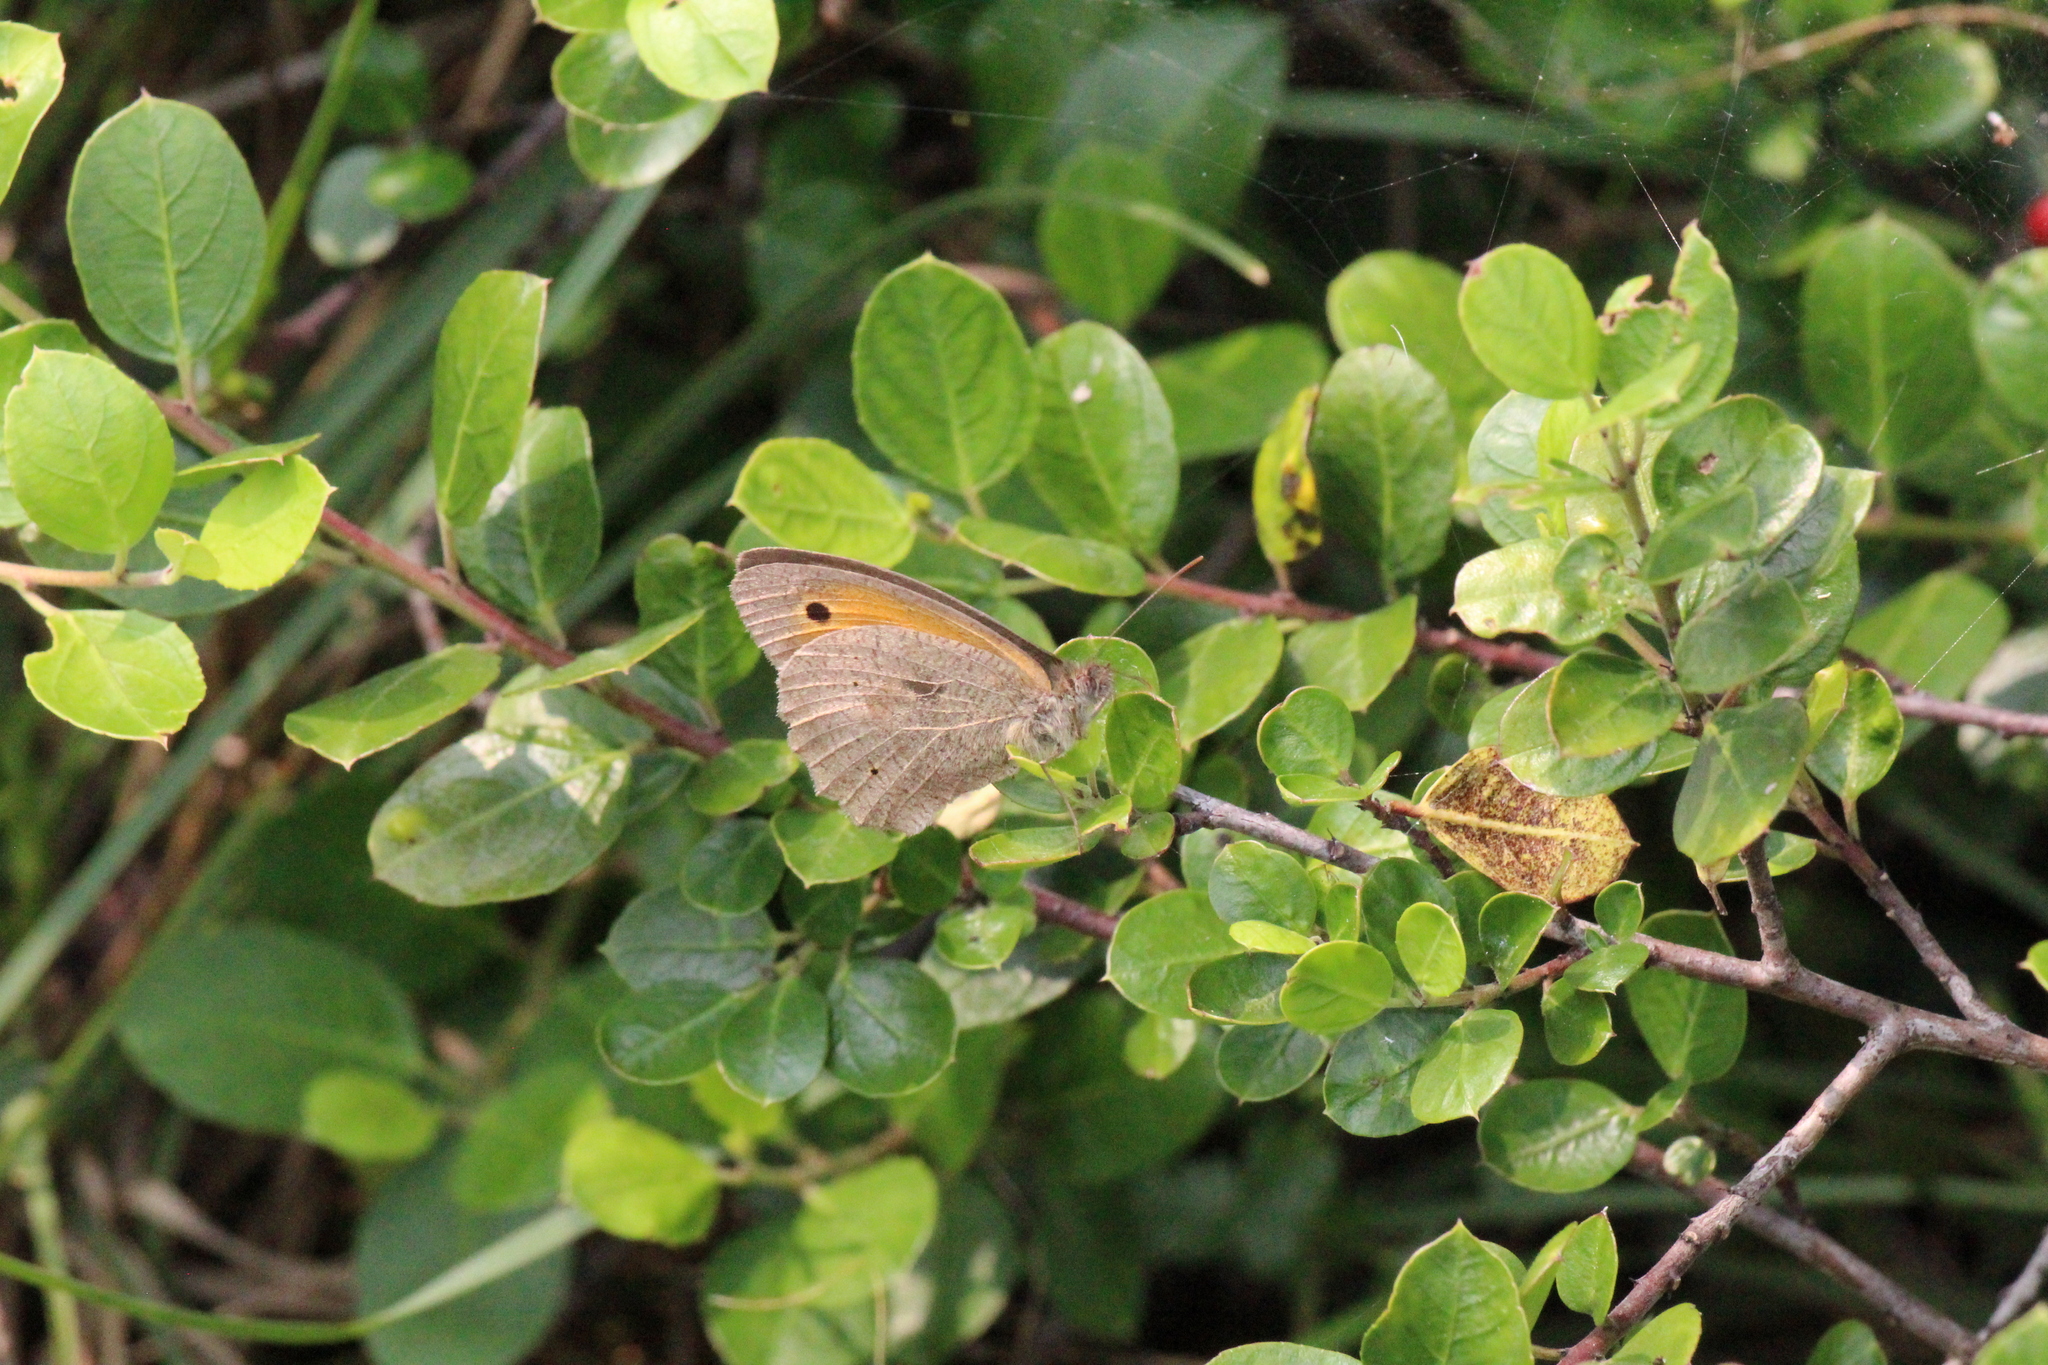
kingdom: Animalia
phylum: Arthropoda
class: Insecta
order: Lepidoptera
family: Nymphalidae
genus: Maniola
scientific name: Maniola jurtina
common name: Meadow brown
